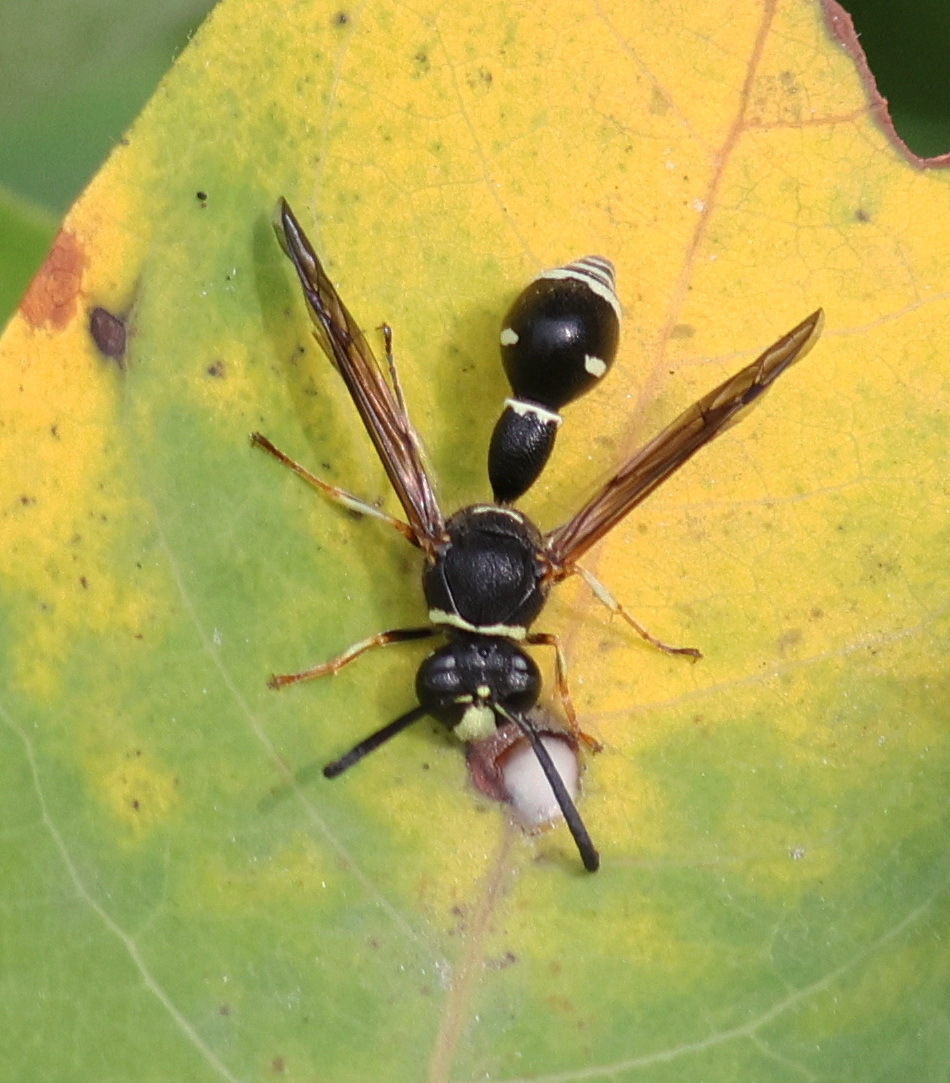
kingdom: Animalia
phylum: Arthropoda
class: Insecta
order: Hymenoptera
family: Vespidae
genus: Eumenes
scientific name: Eumenes fraternus
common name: Fraternal potter wasp
